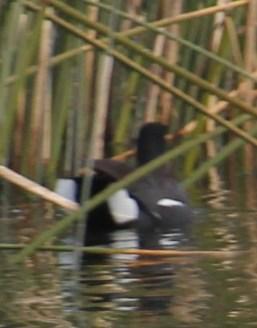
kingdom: Animalia
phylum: Chordata
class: Aves
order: Gruiformes
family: Rallidae
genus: Gallinula
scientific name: Gallinula chloropus
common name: Common moorhen
